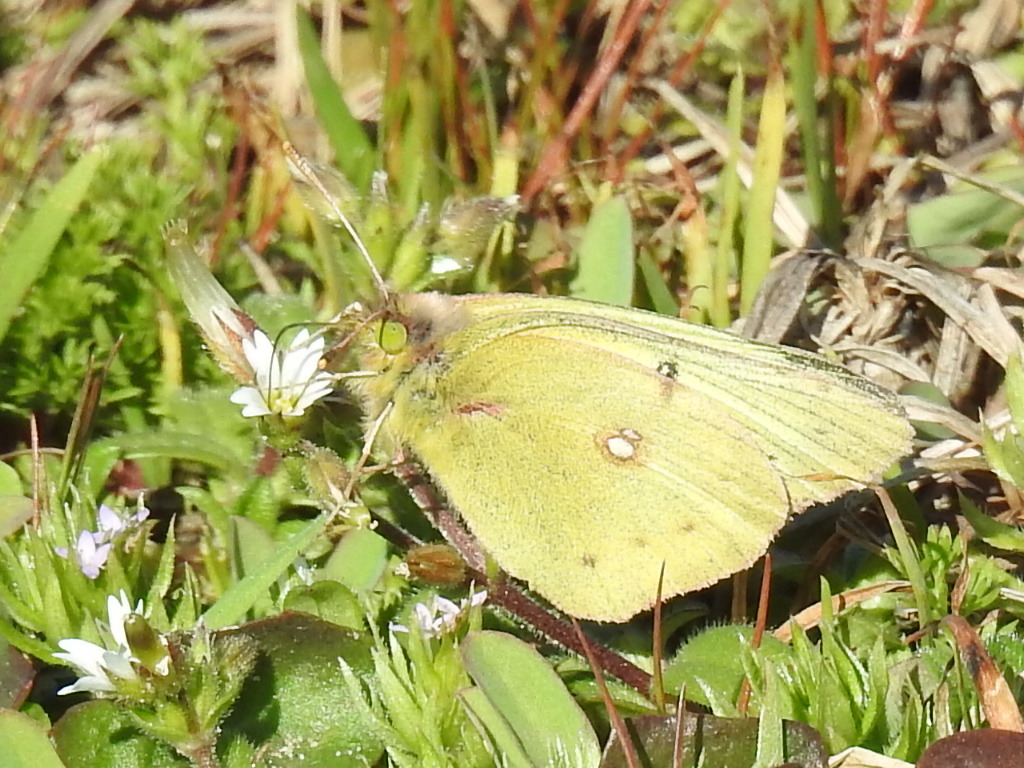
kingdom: Animalia
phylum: Arthropoda
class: Insecta
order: Lepidoptera
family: Pieridae
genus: Colias
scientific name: Colias eurytheme
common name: Alfalfa butterfly
